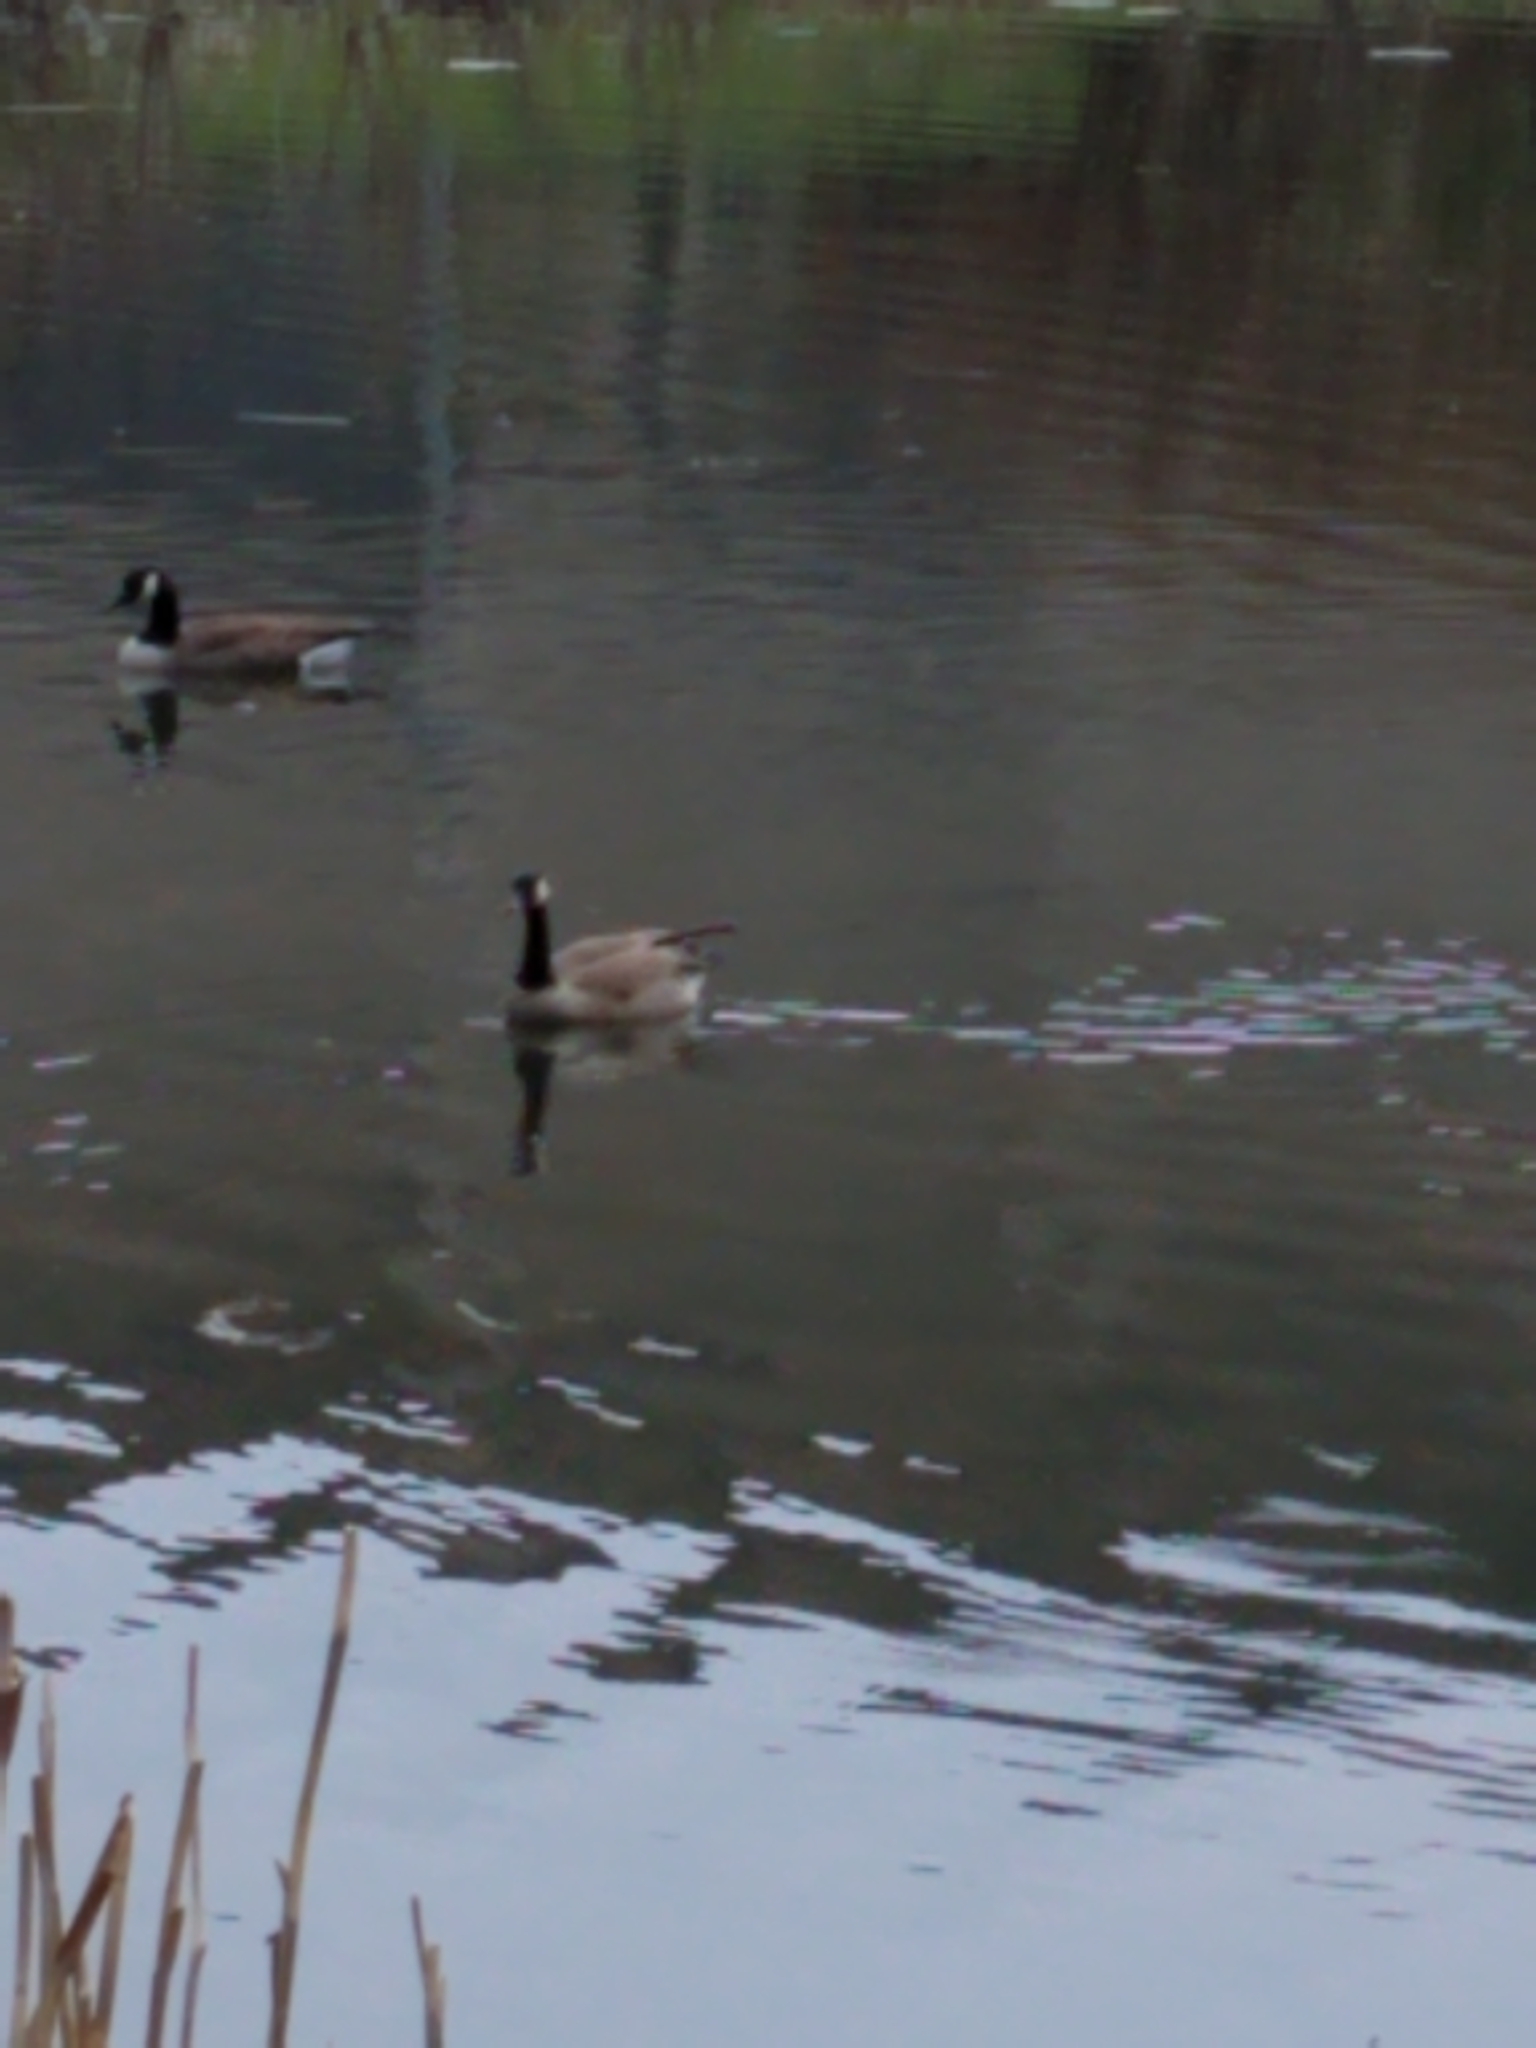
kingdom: Animalia
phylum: Chordata
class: Aves
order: Anseriformes
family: Anatidae
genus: Branta
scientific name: Branta canadensis
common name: Canada goose
